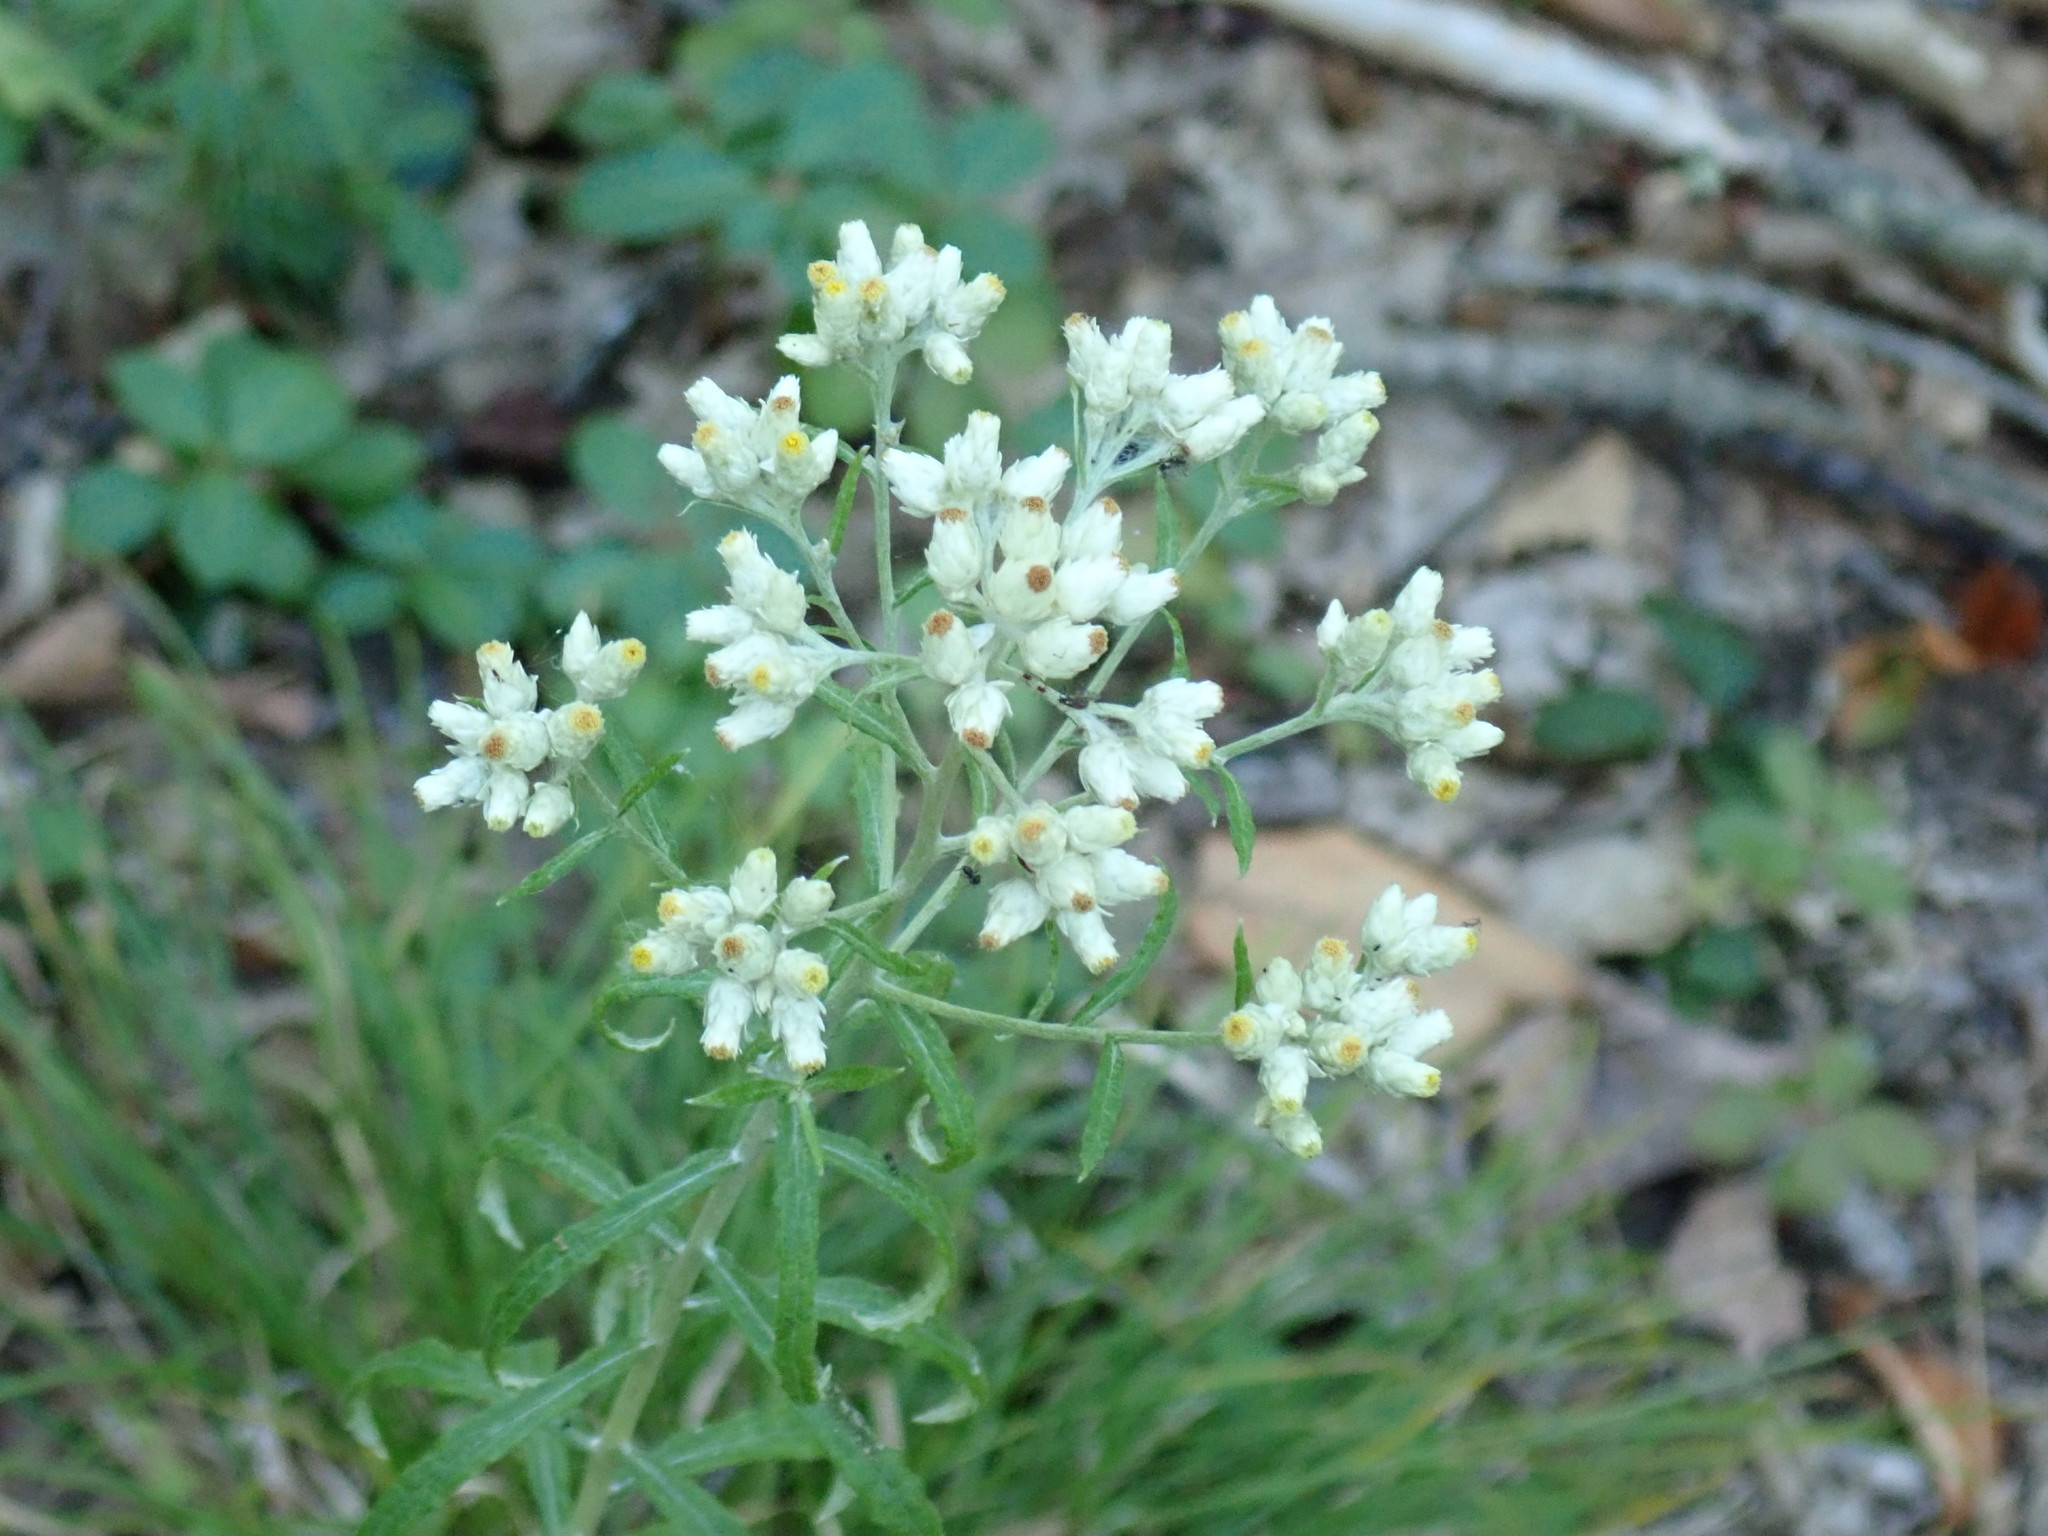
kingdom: Plantae
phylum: Tracheophyta
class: Magnoliopsida
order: Asterales
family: Asteraceae
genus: Pseudognaphalium
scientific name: Pseudognaphalium obtusifolium
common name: Eastern rabbit-tobacco
